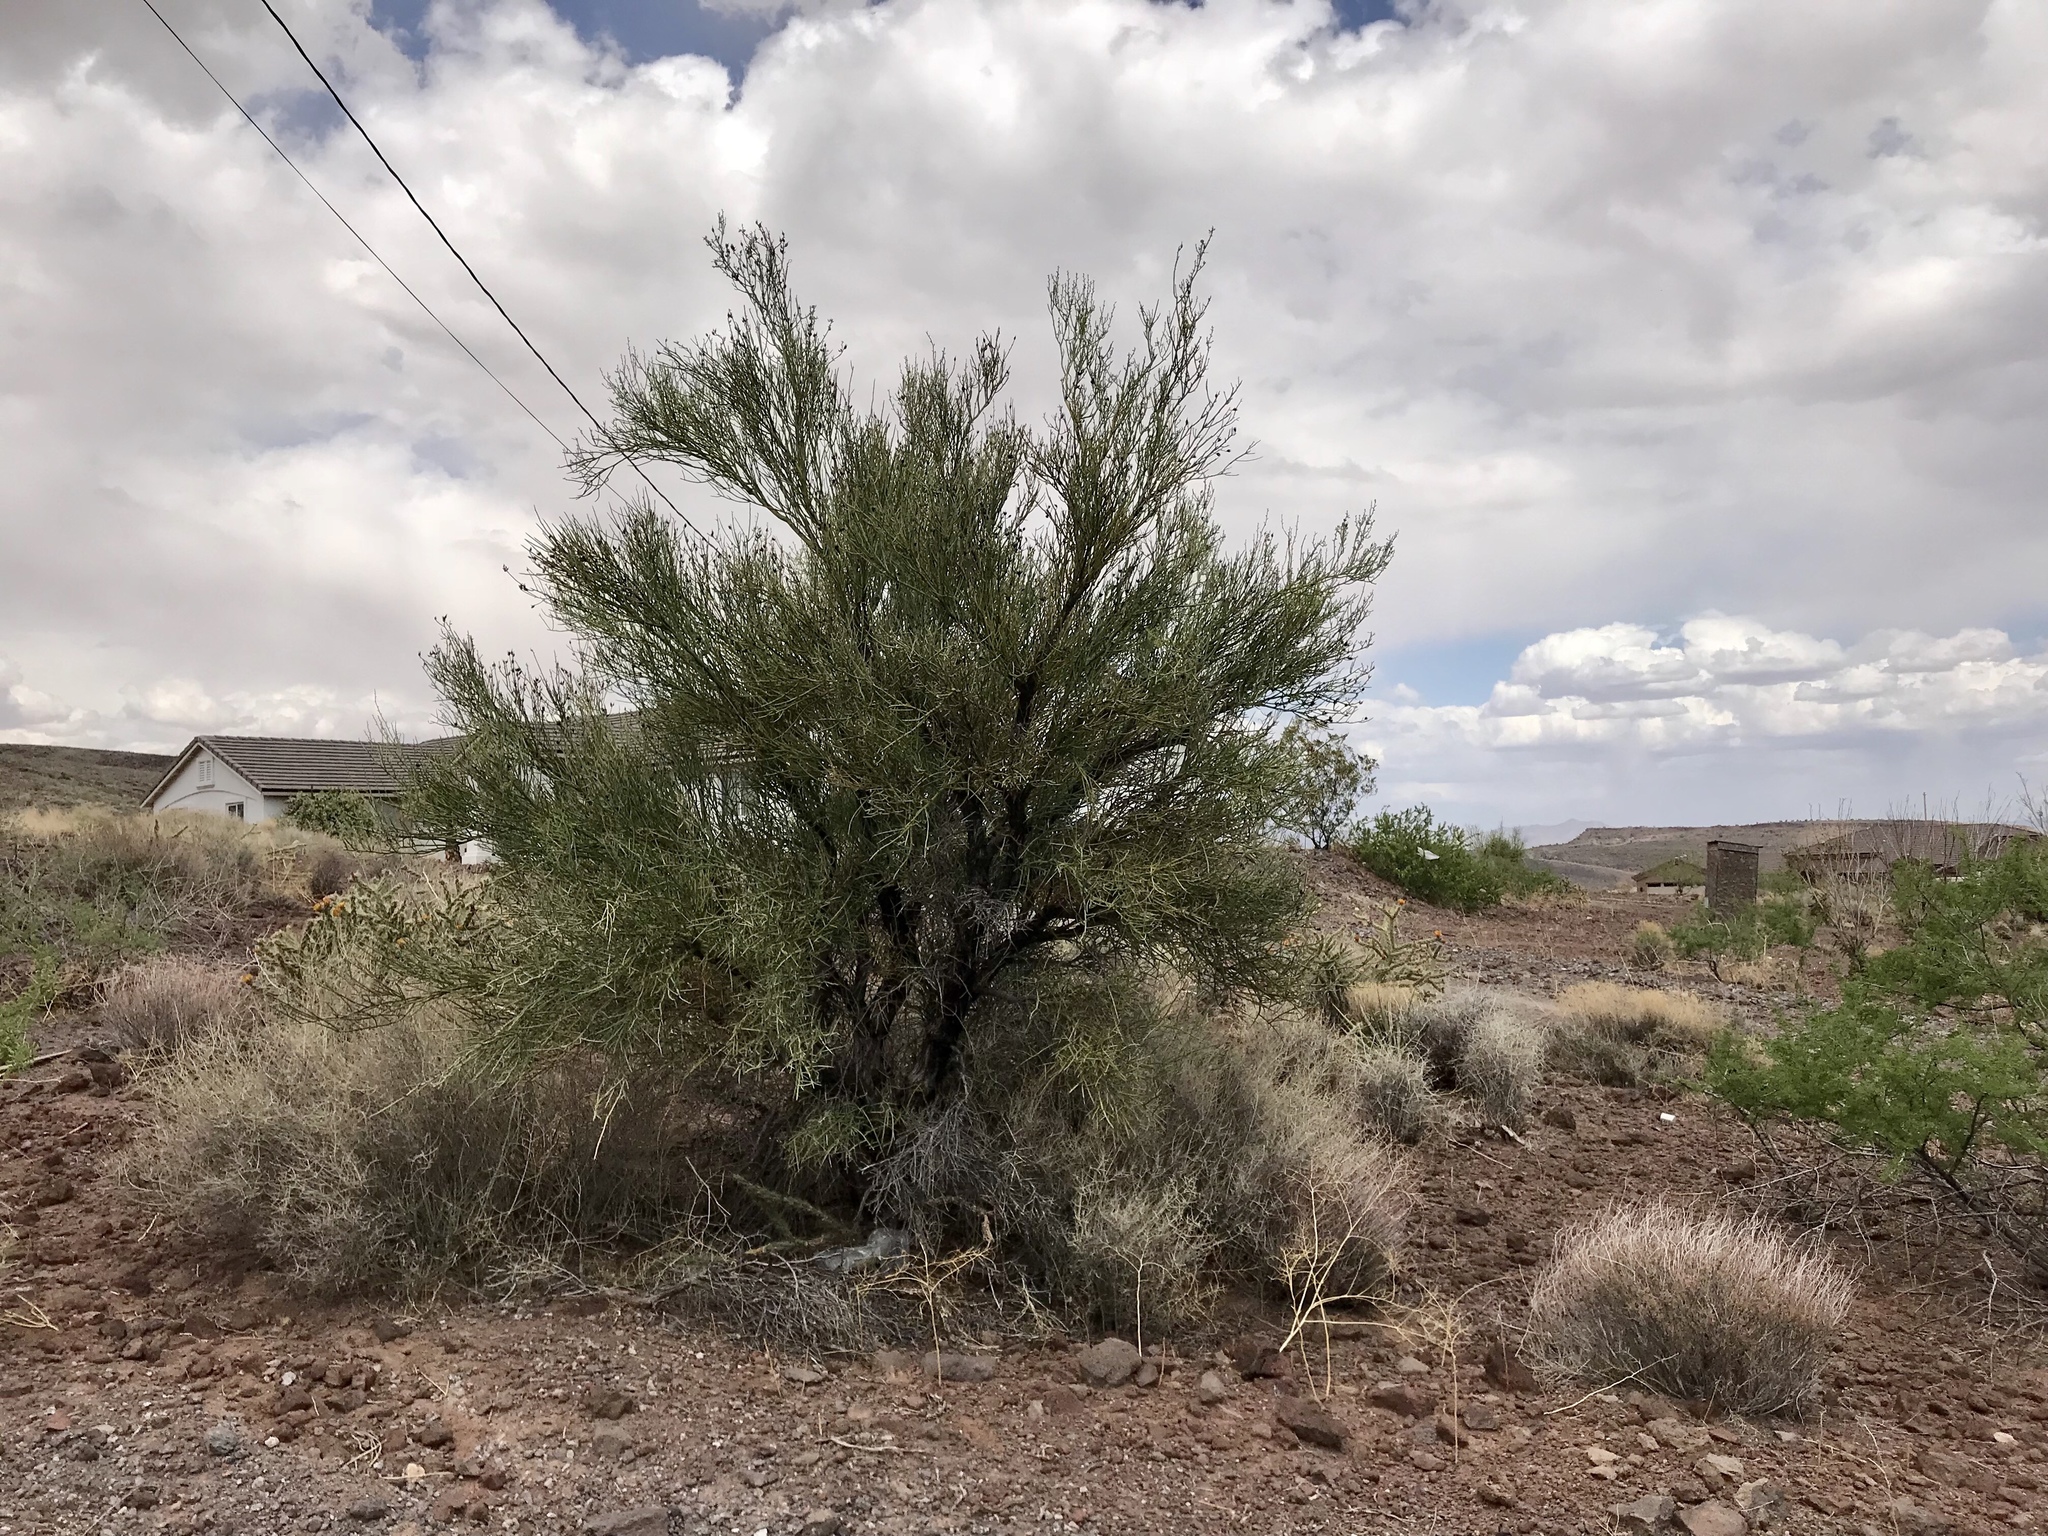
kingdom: Plantae
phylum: Tracheophyta
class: Magnoliopsida
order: Celastrales
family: Celastraceae
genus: Canotia
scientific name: Canotia holacantha
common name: Crucifixion thorns
